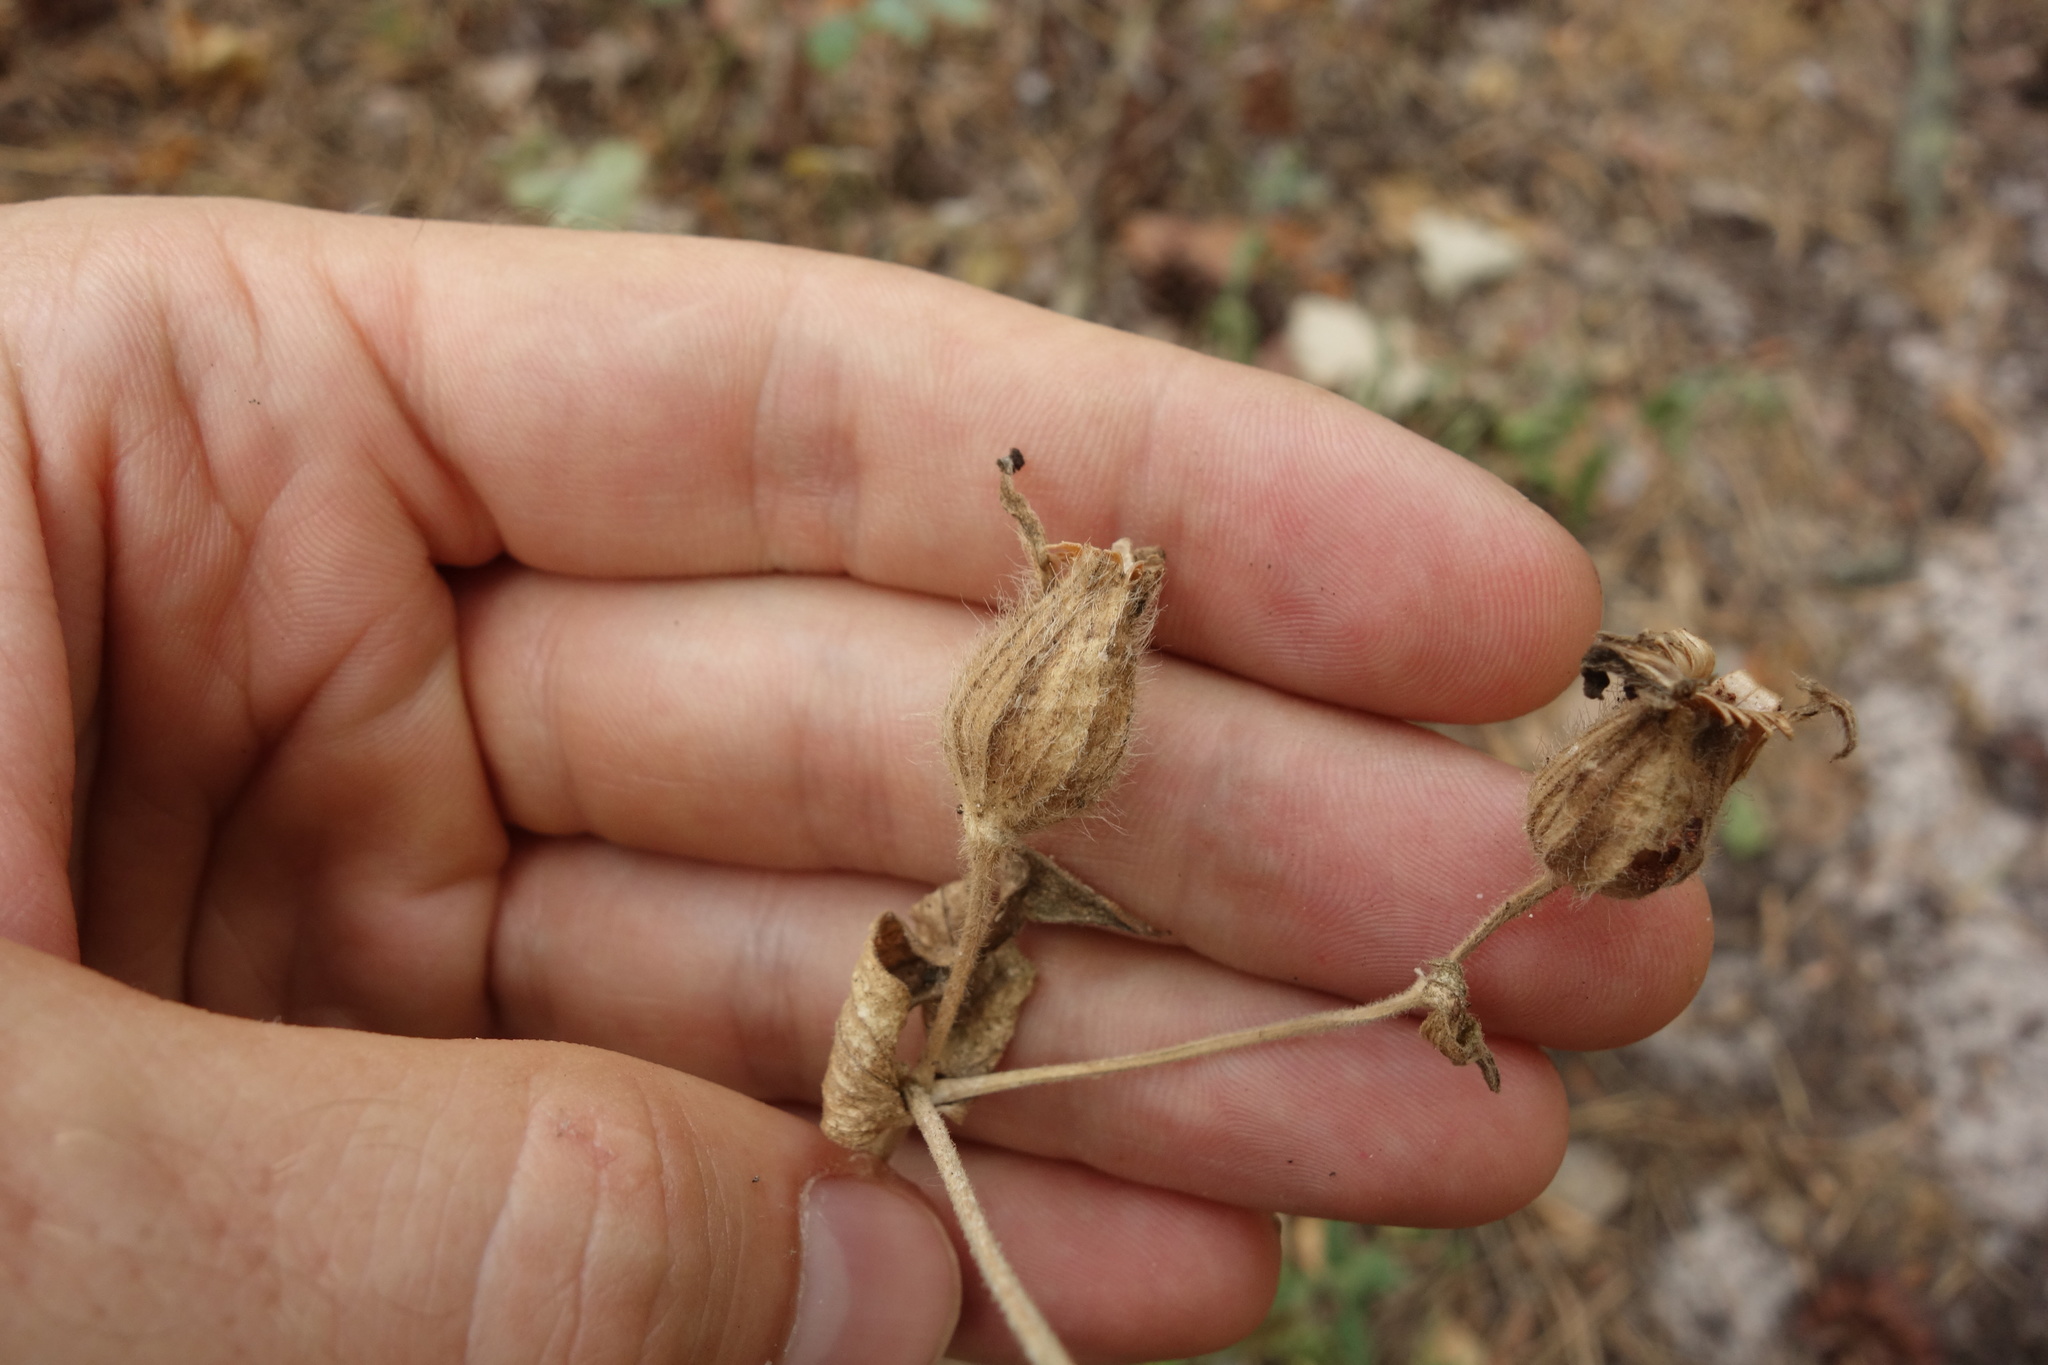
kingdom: Plantae
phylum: Tracheophyta
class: Magnoliopsida
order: Caryophyllales
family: Caryophyllaceae
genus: Silene
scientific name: Silene latifolia
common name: White campion
